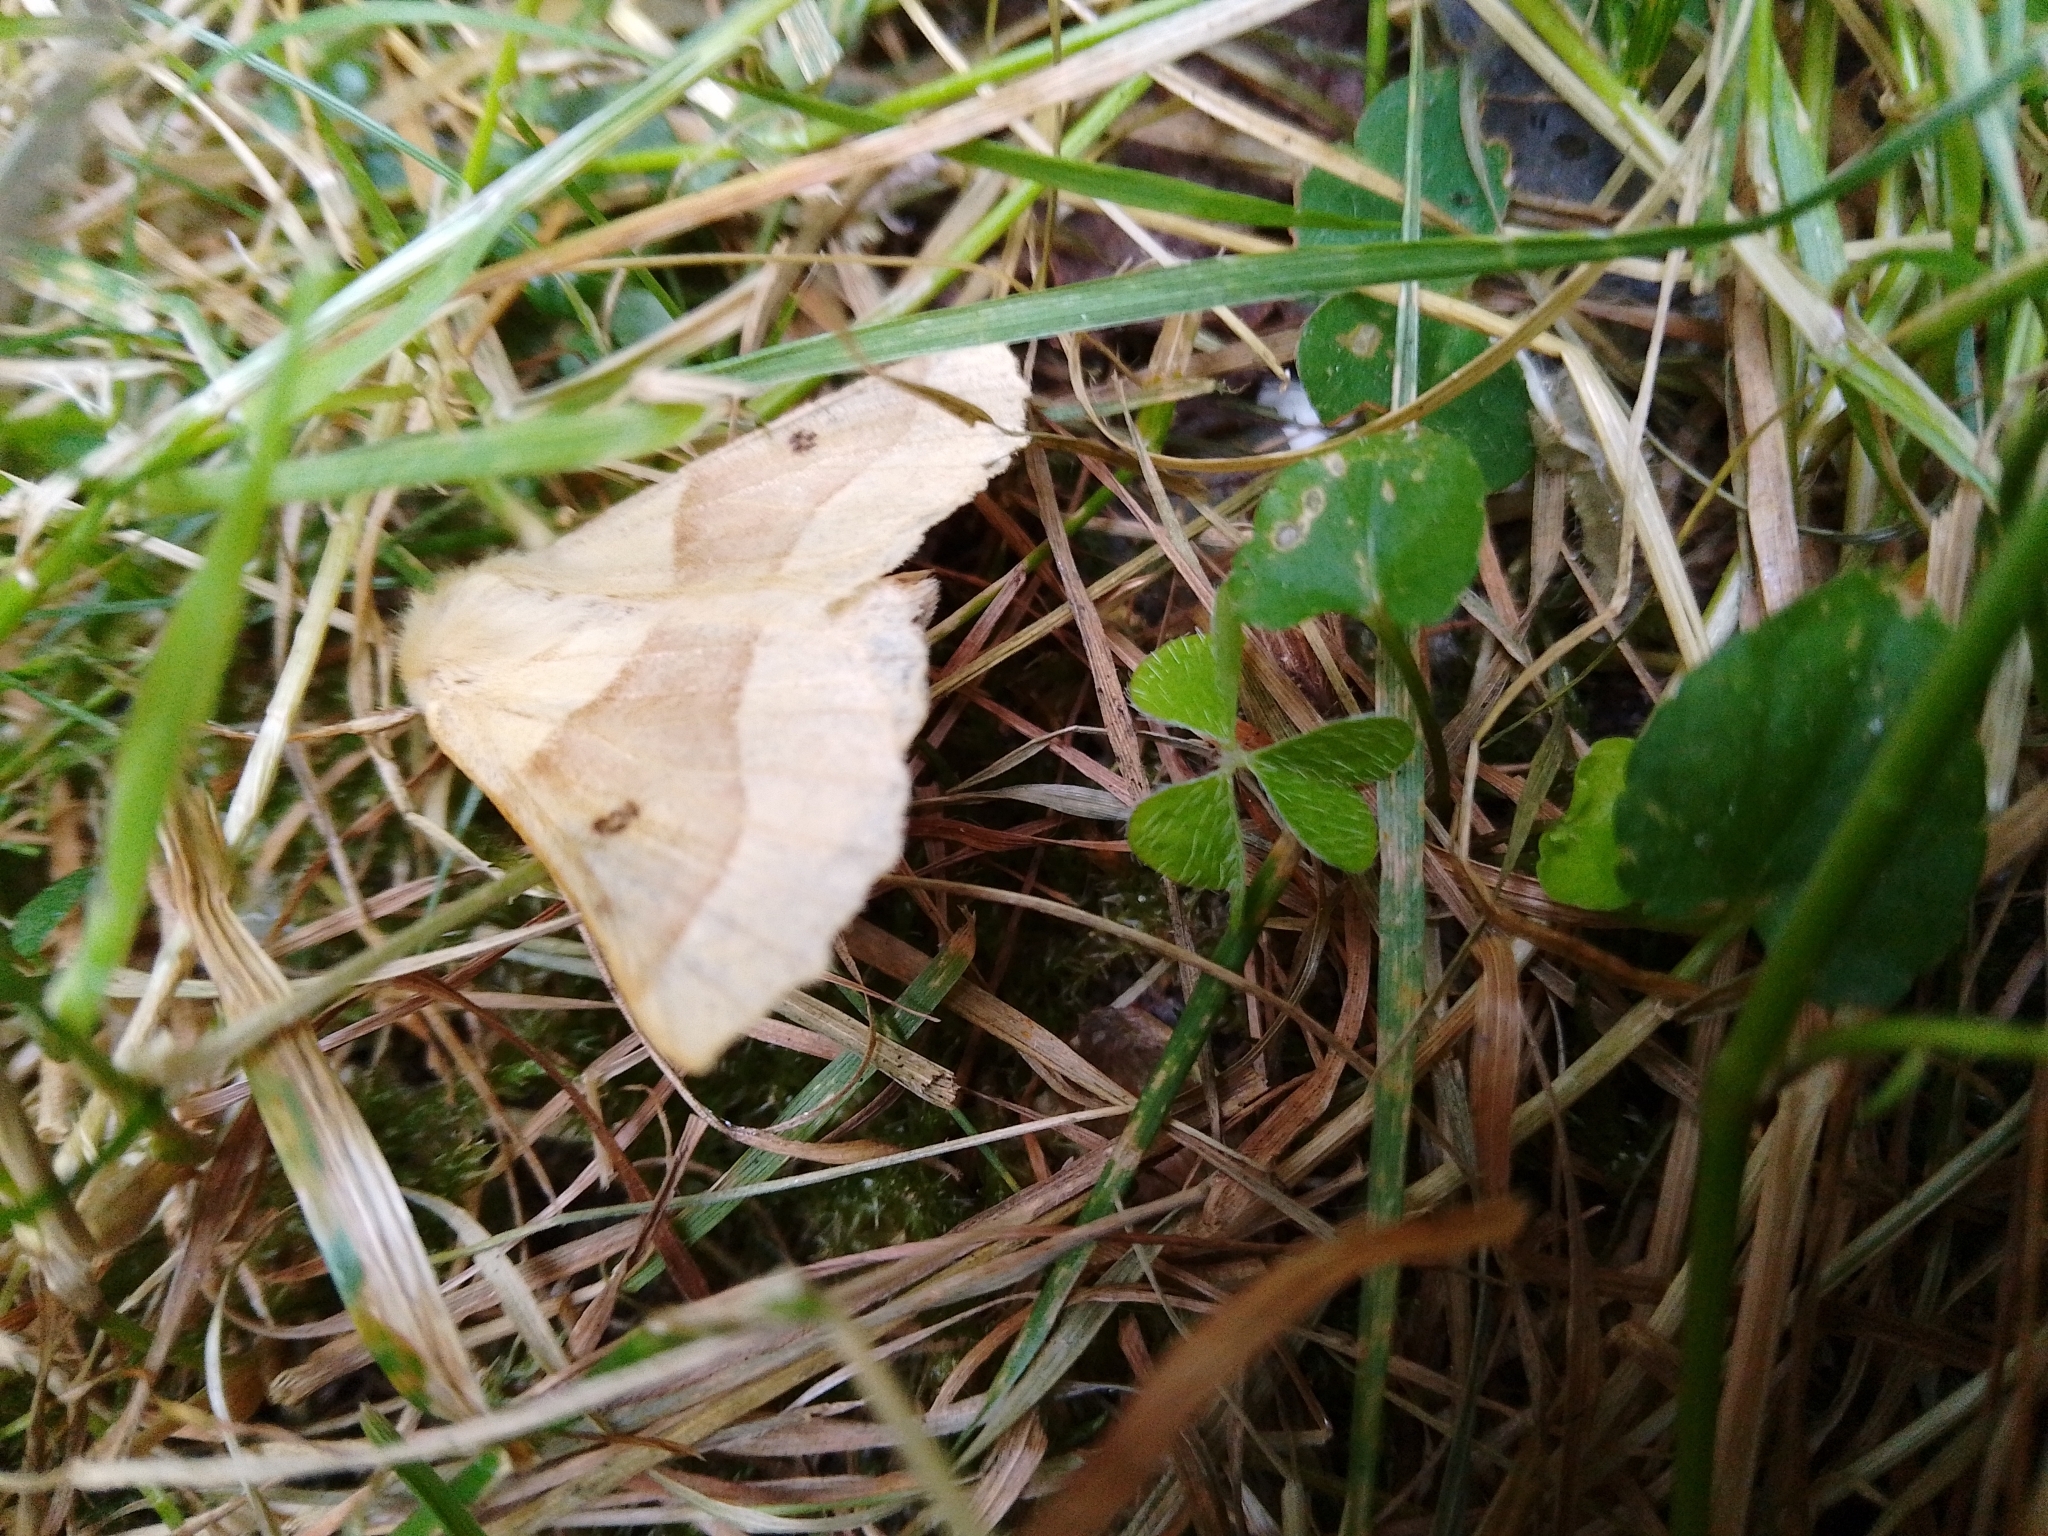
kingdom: Animalia
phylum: Arthropoda
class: Insecta
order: Lepidoptera
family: Geometridae
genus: Crocallis
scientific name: Crocallis elinguaria
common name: Scalloped oak
